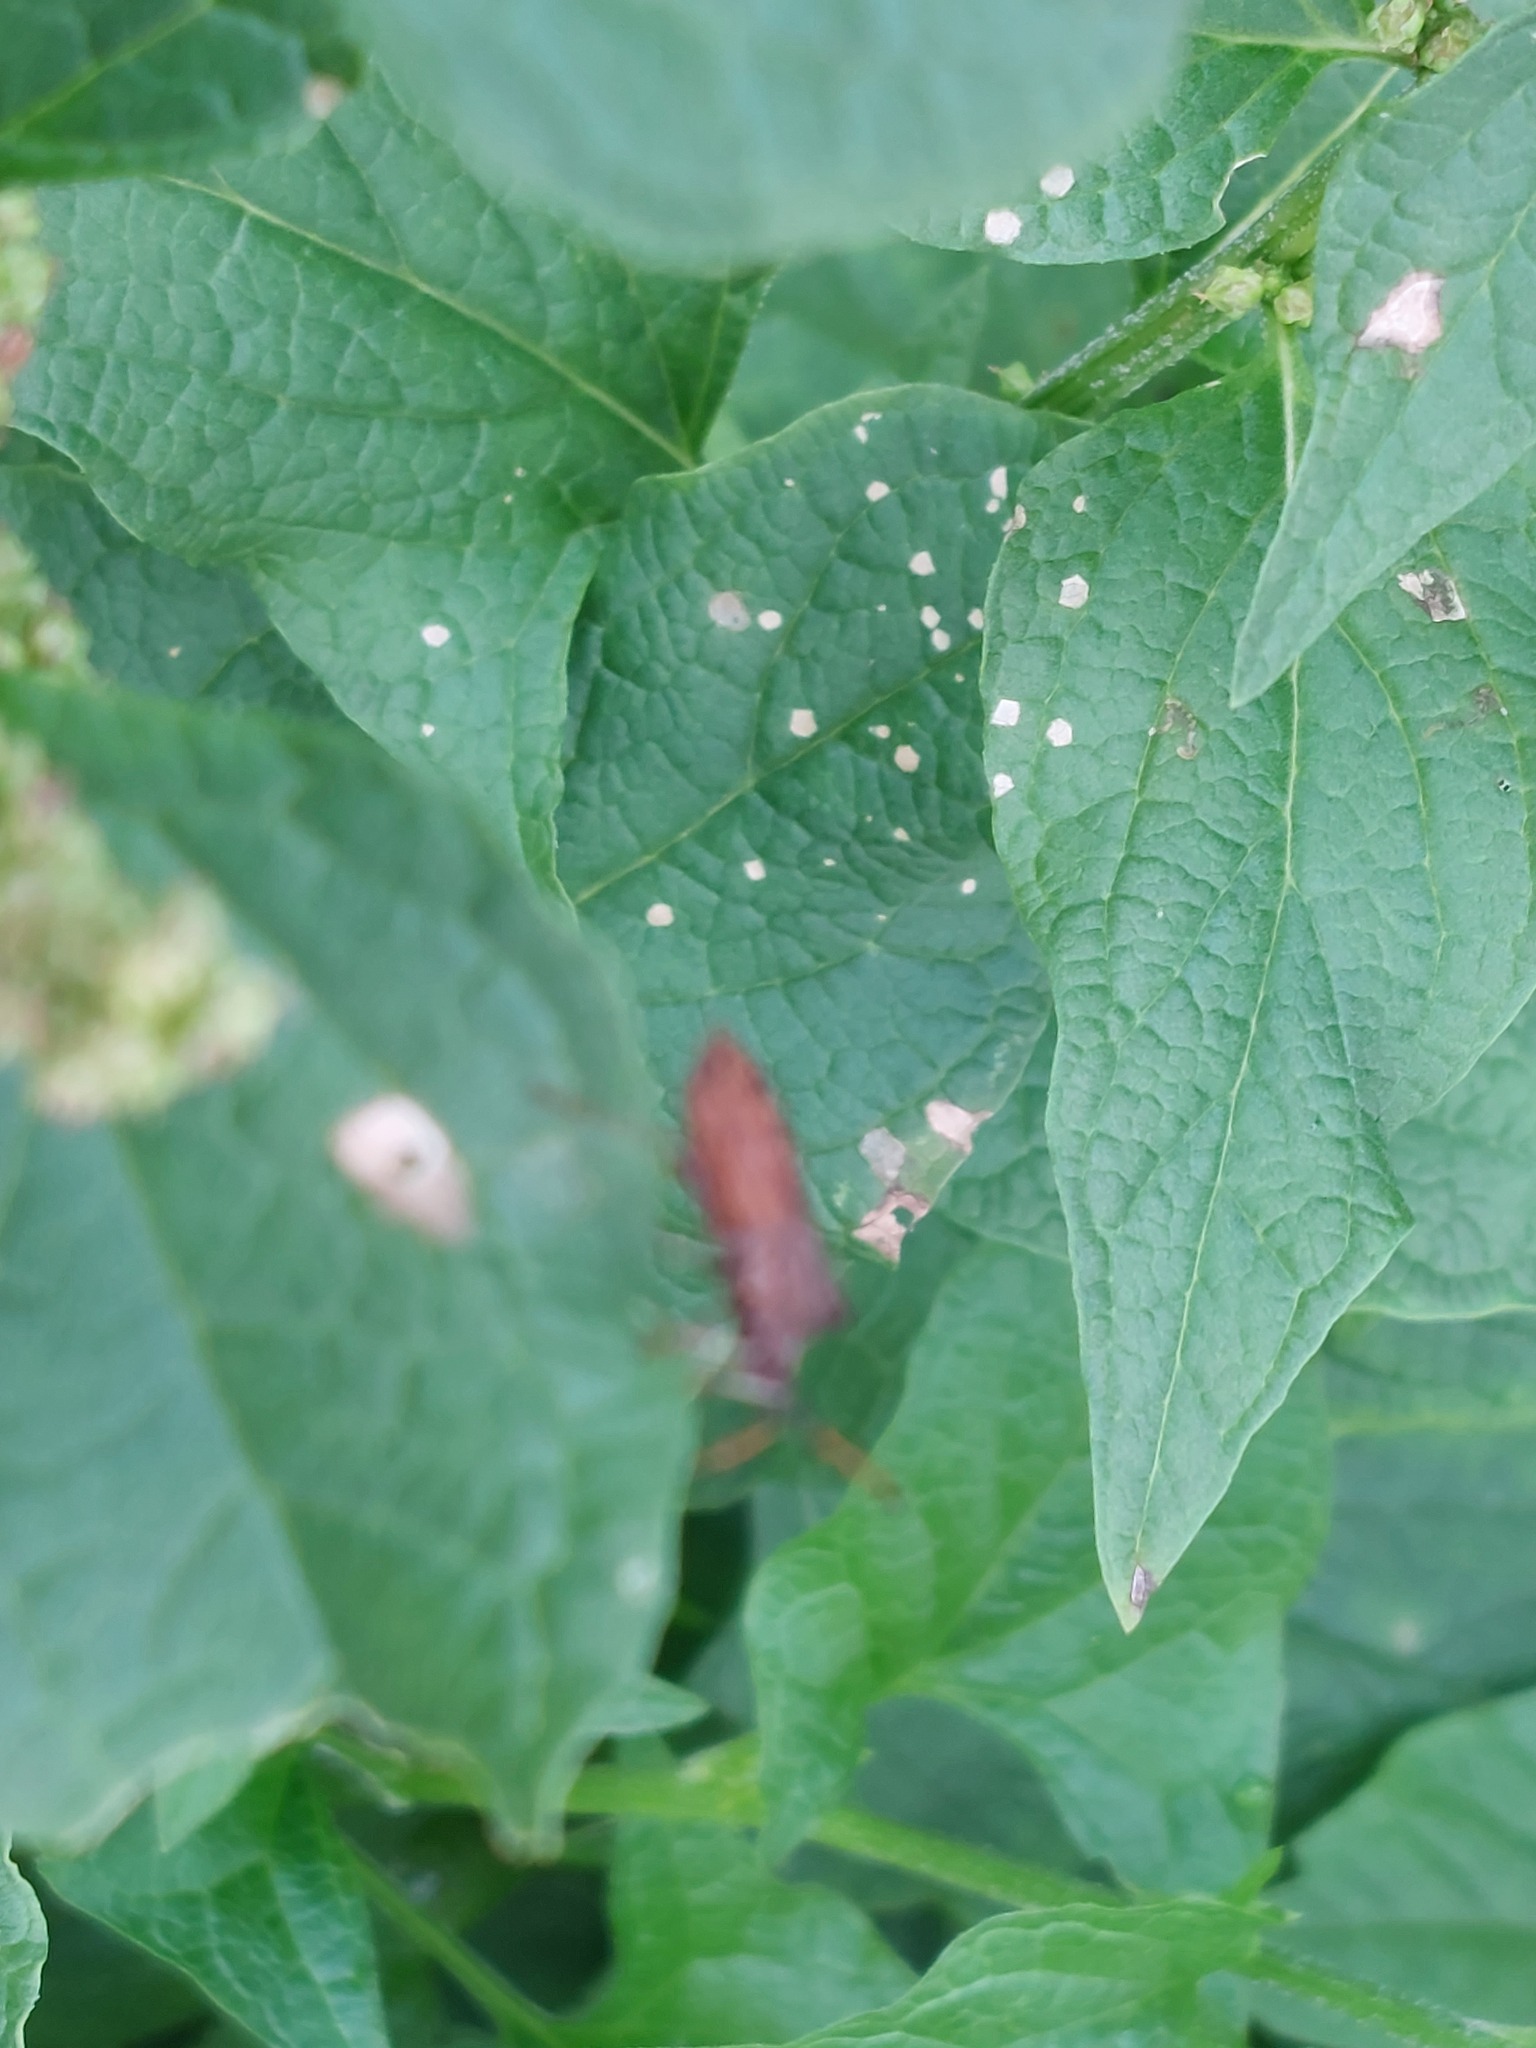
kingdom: Animalia
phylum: Arthropoda
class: Insecta
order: Hemiptera
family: Coreidae
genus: Coreus
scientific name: Coreus marginatus
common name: Dock bug
